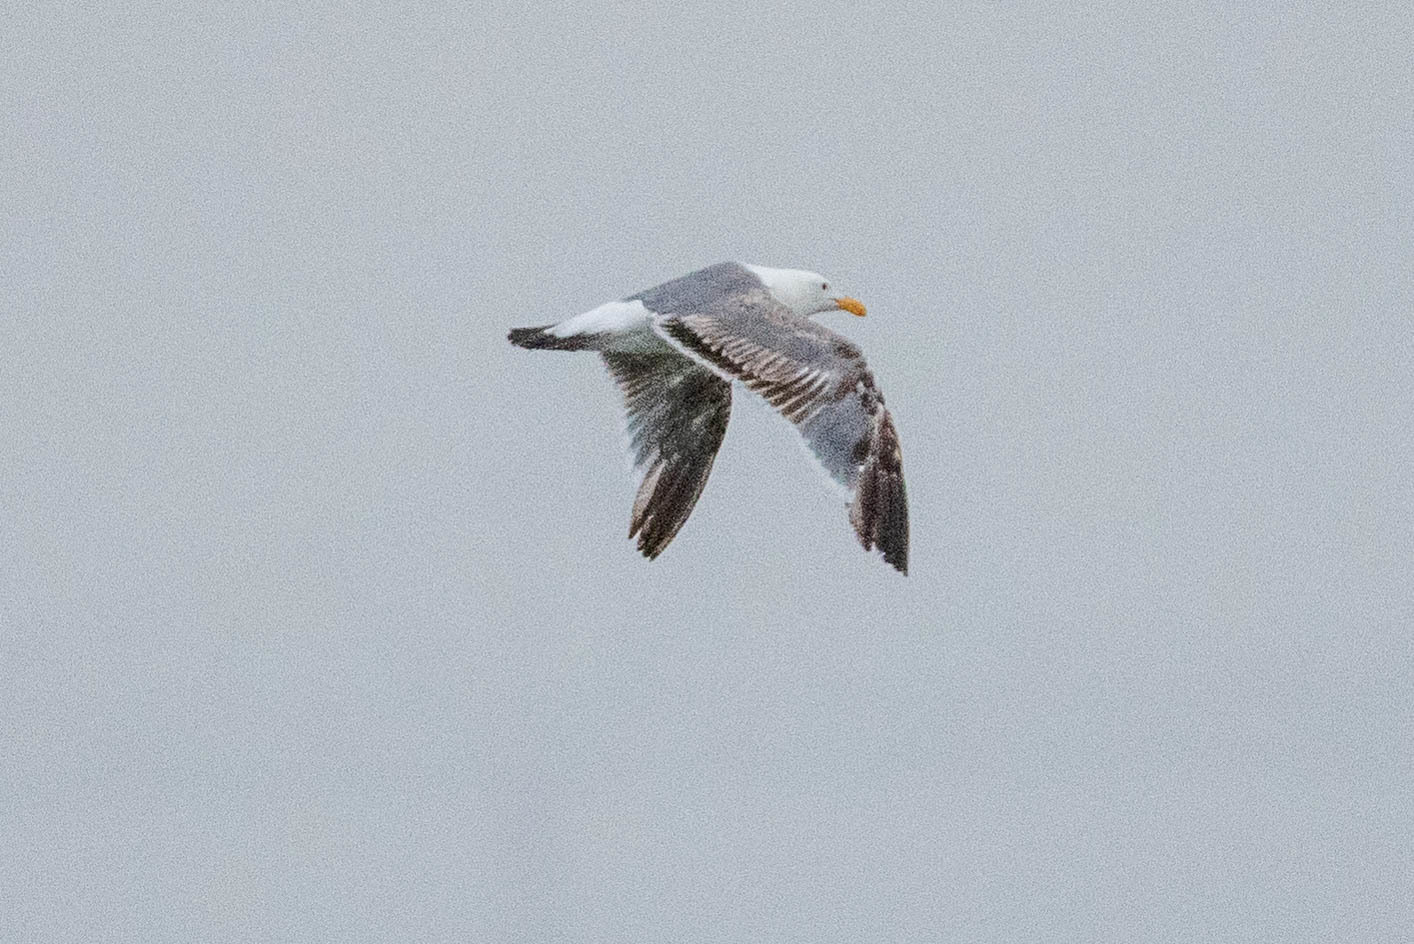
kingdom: Animalia
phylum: Chordata
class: Aves
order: Charadriiformes
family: Laridae
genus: Larus
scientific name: Larus occidentalis
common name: Western gull
